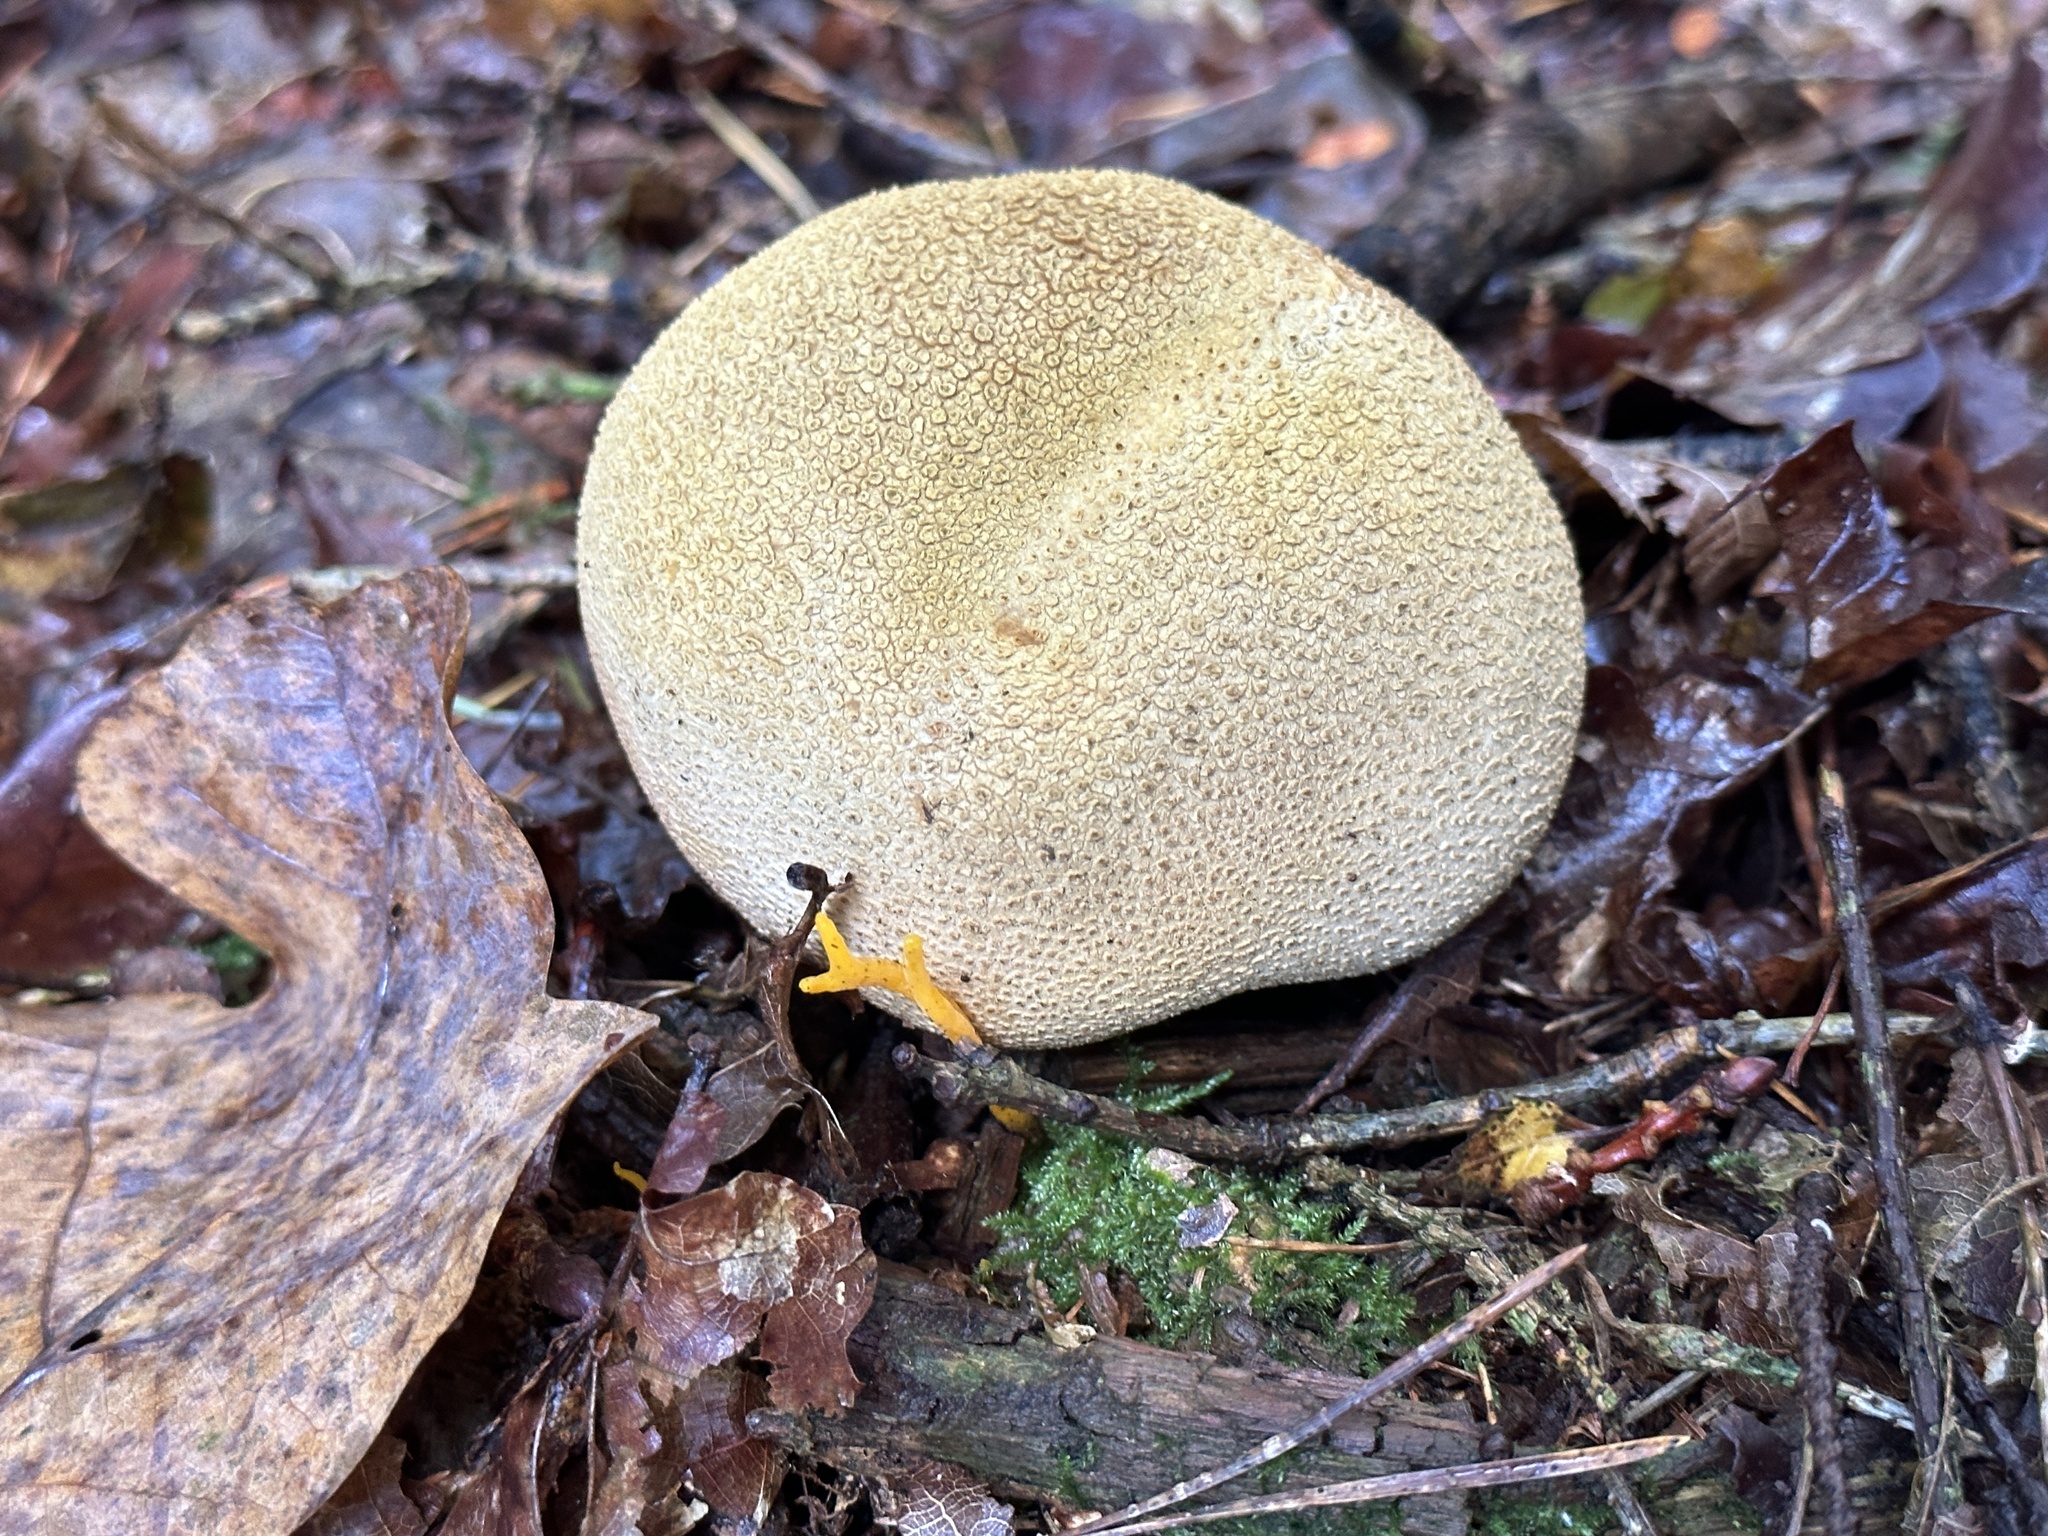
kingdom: Fungi
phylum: Basidiomycota
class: Agaricomycetes
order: Boletales
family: Sclerodermataceae
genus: Scleroderma
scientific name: Scleroderma citrinum
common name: Common earthball
